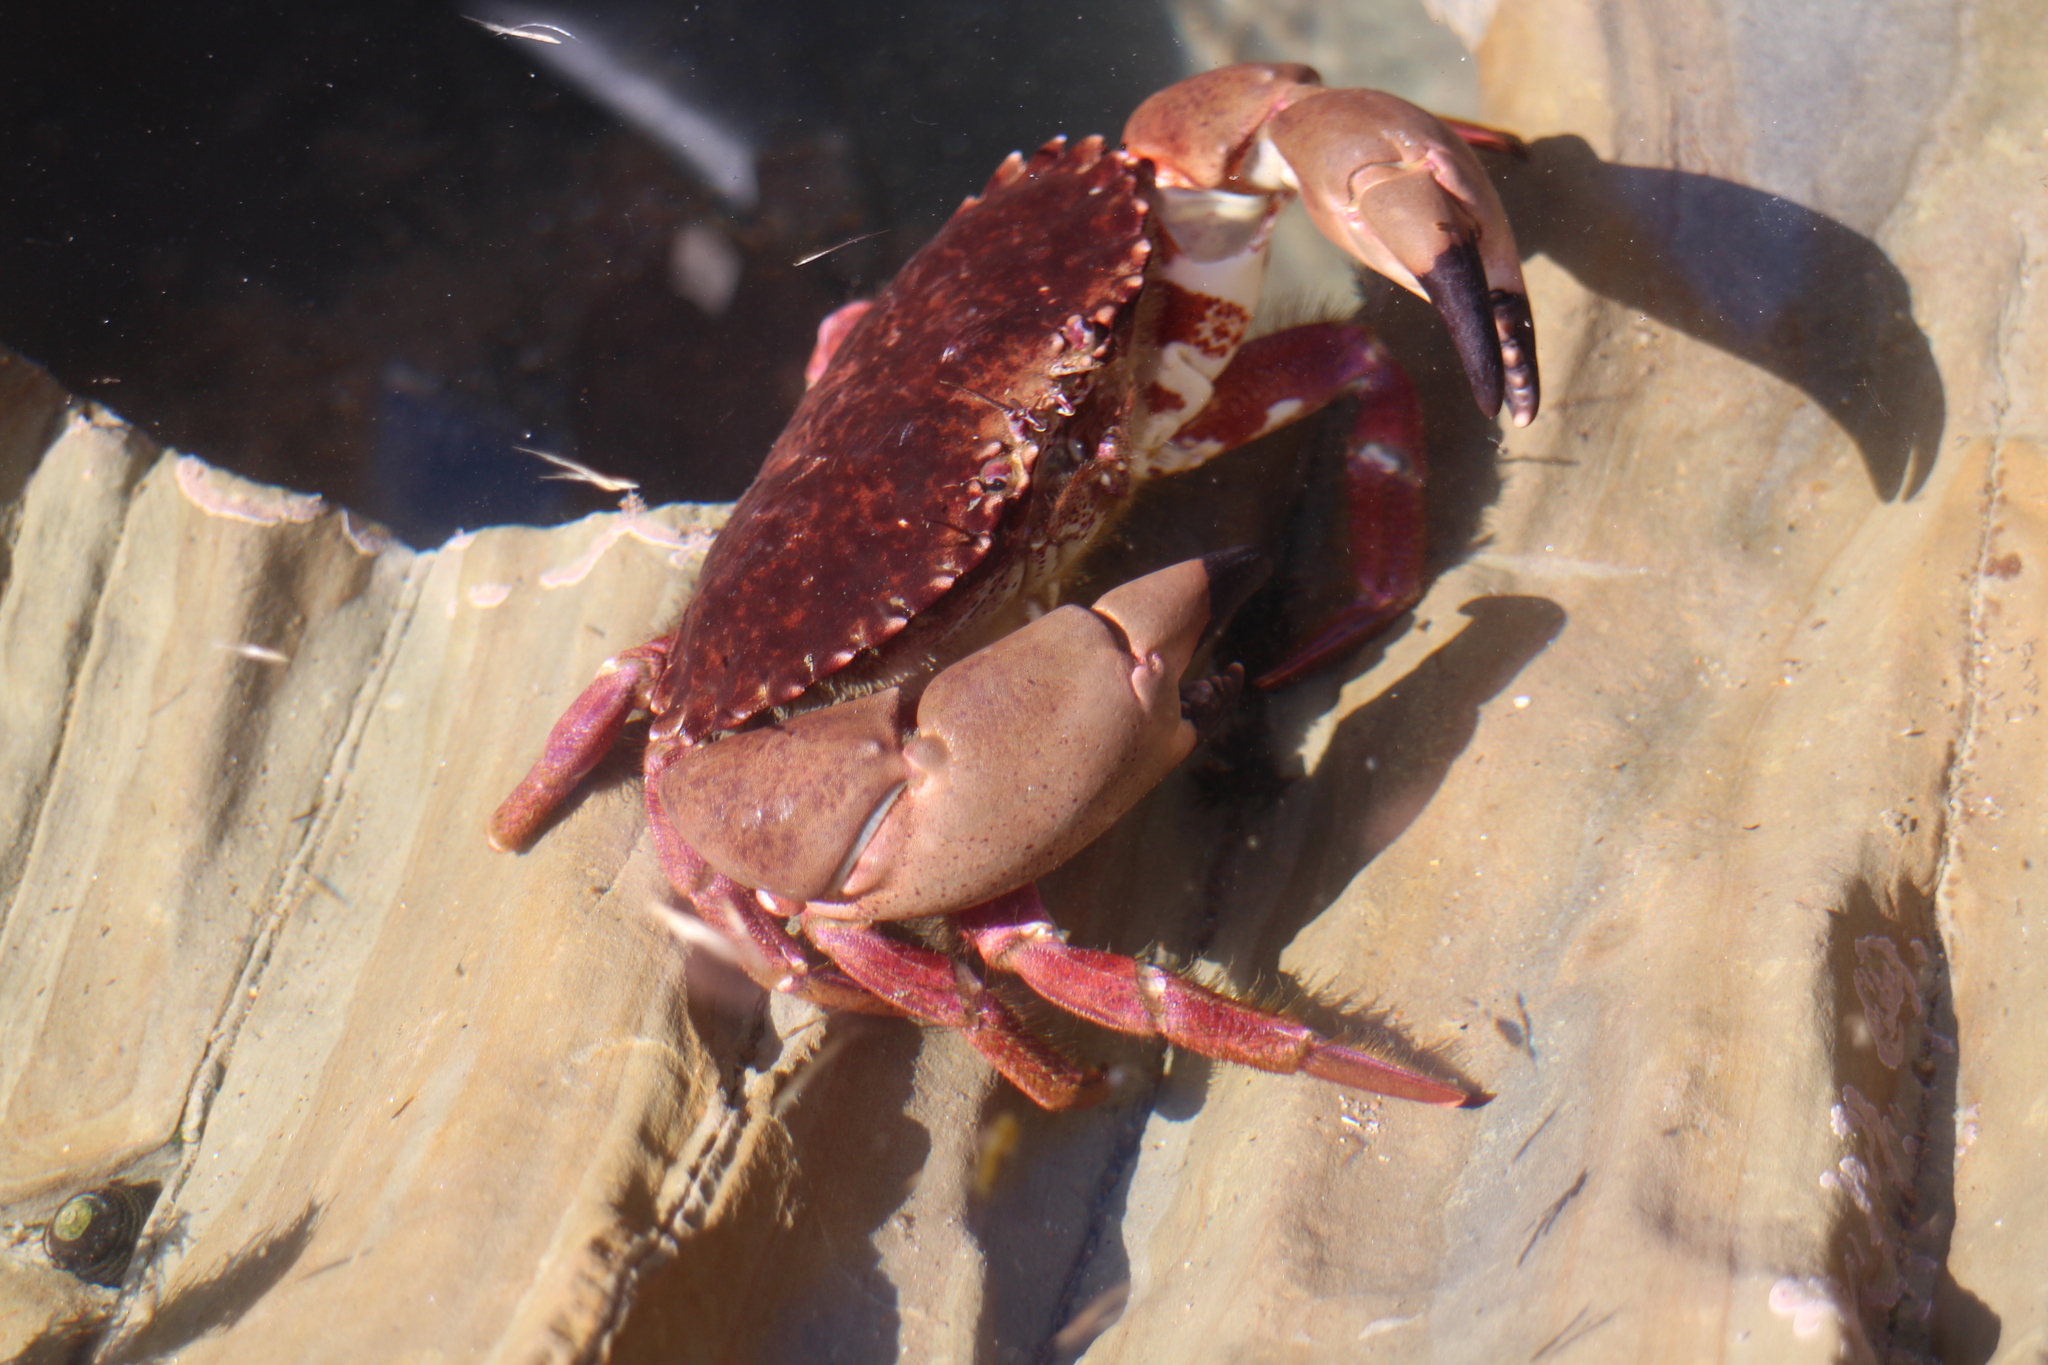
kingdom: Animalia
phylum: Arthropoda
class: Malacostraca
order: Decapoda
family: Cancridae
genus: Romaleon
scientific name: Romaleon antennarium
